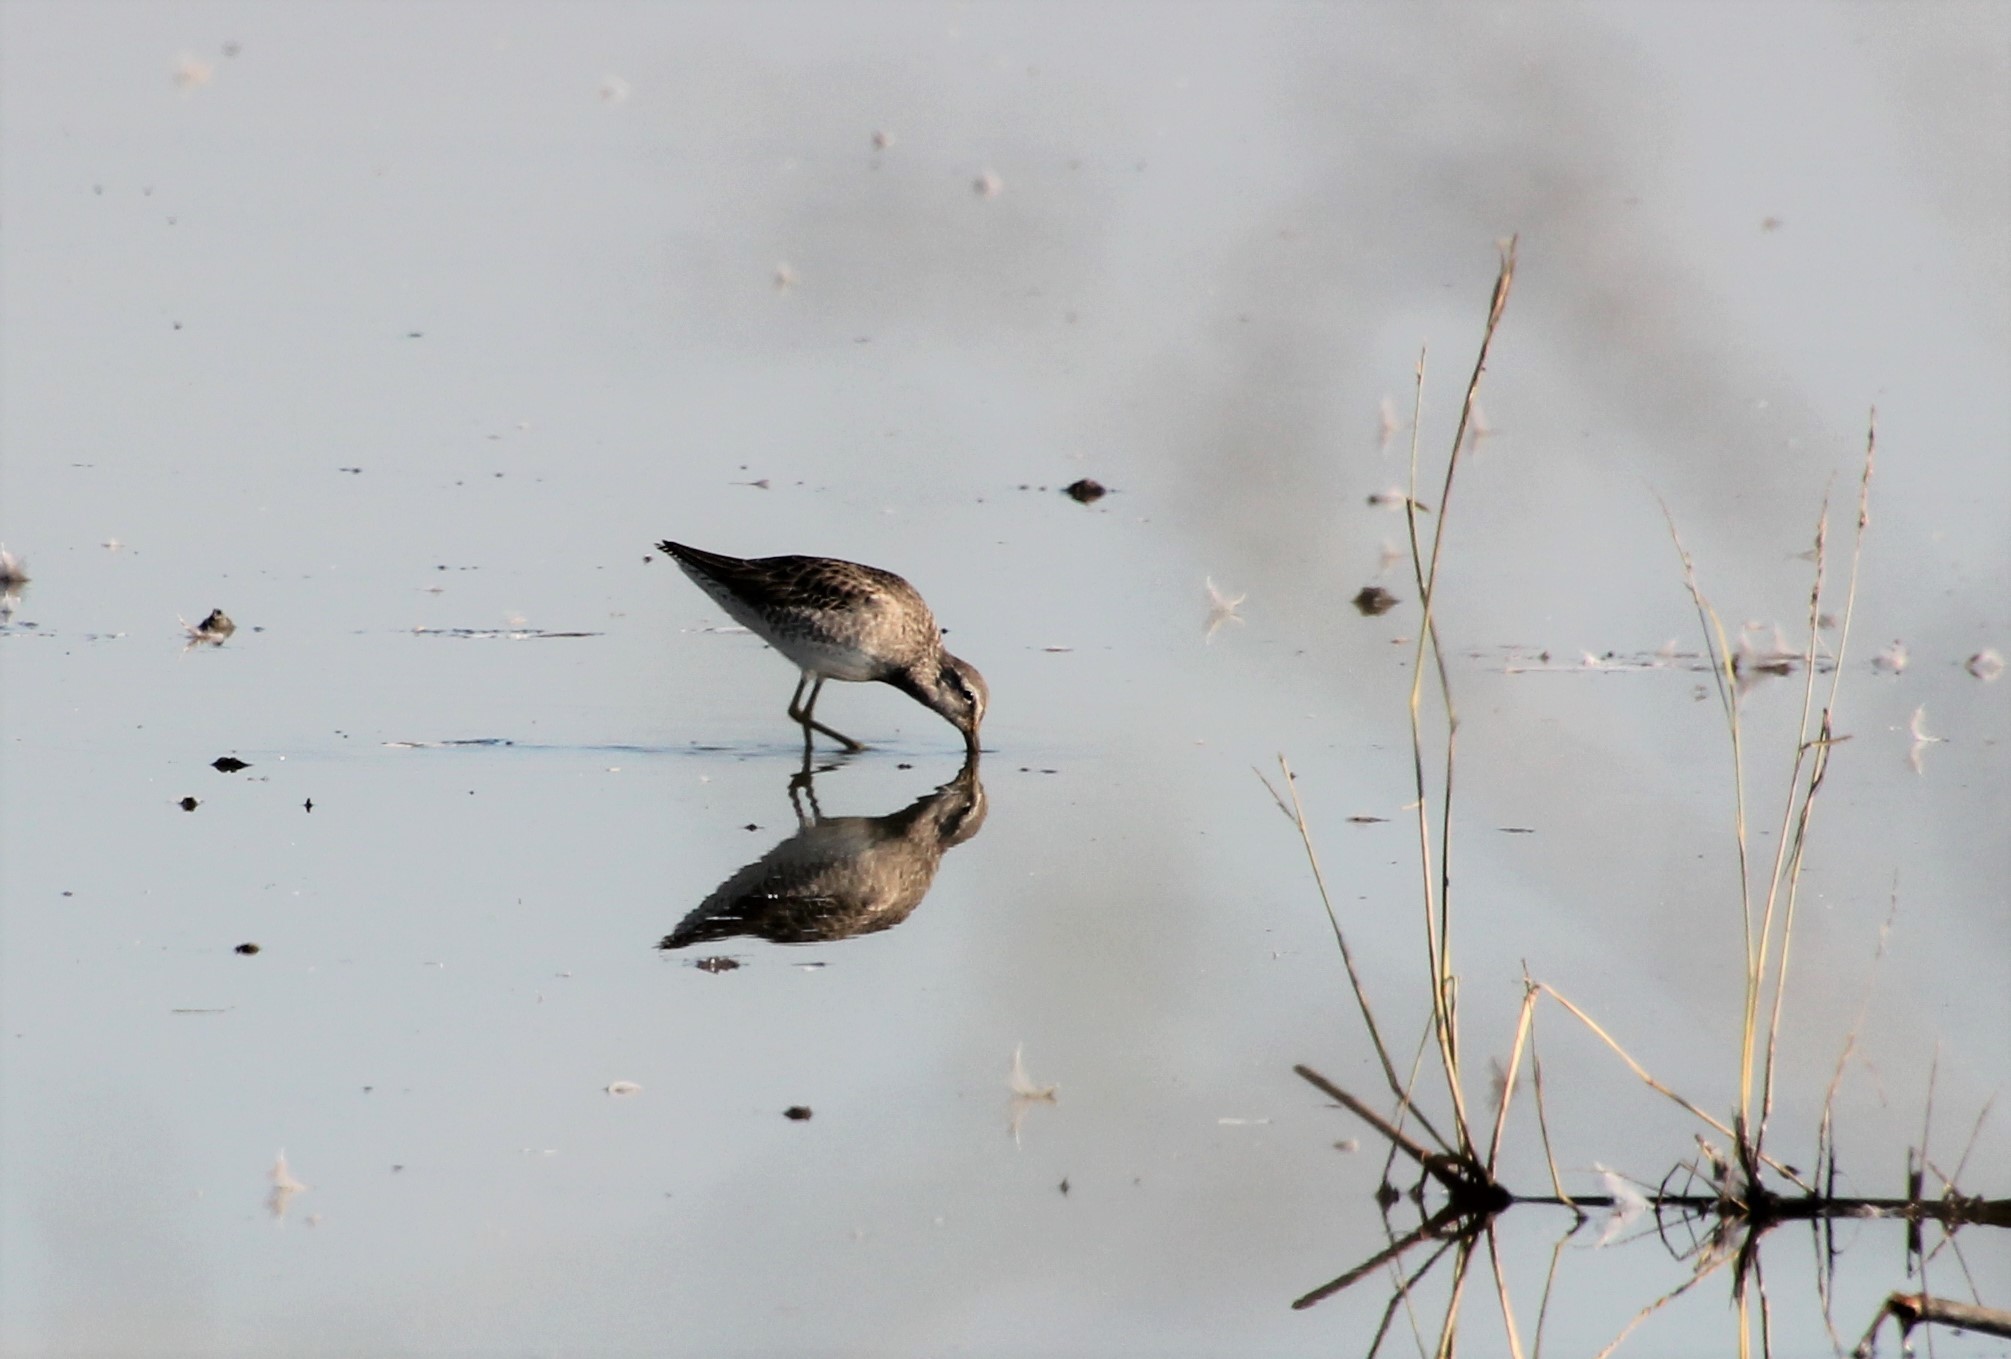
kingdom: Animalia
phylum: Chordata
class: Aves
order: Charadriiformes
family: Scolopacidae
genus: Limnodromus
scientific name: Limnodromus scolopaceus
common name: Long-billed dowitcher
